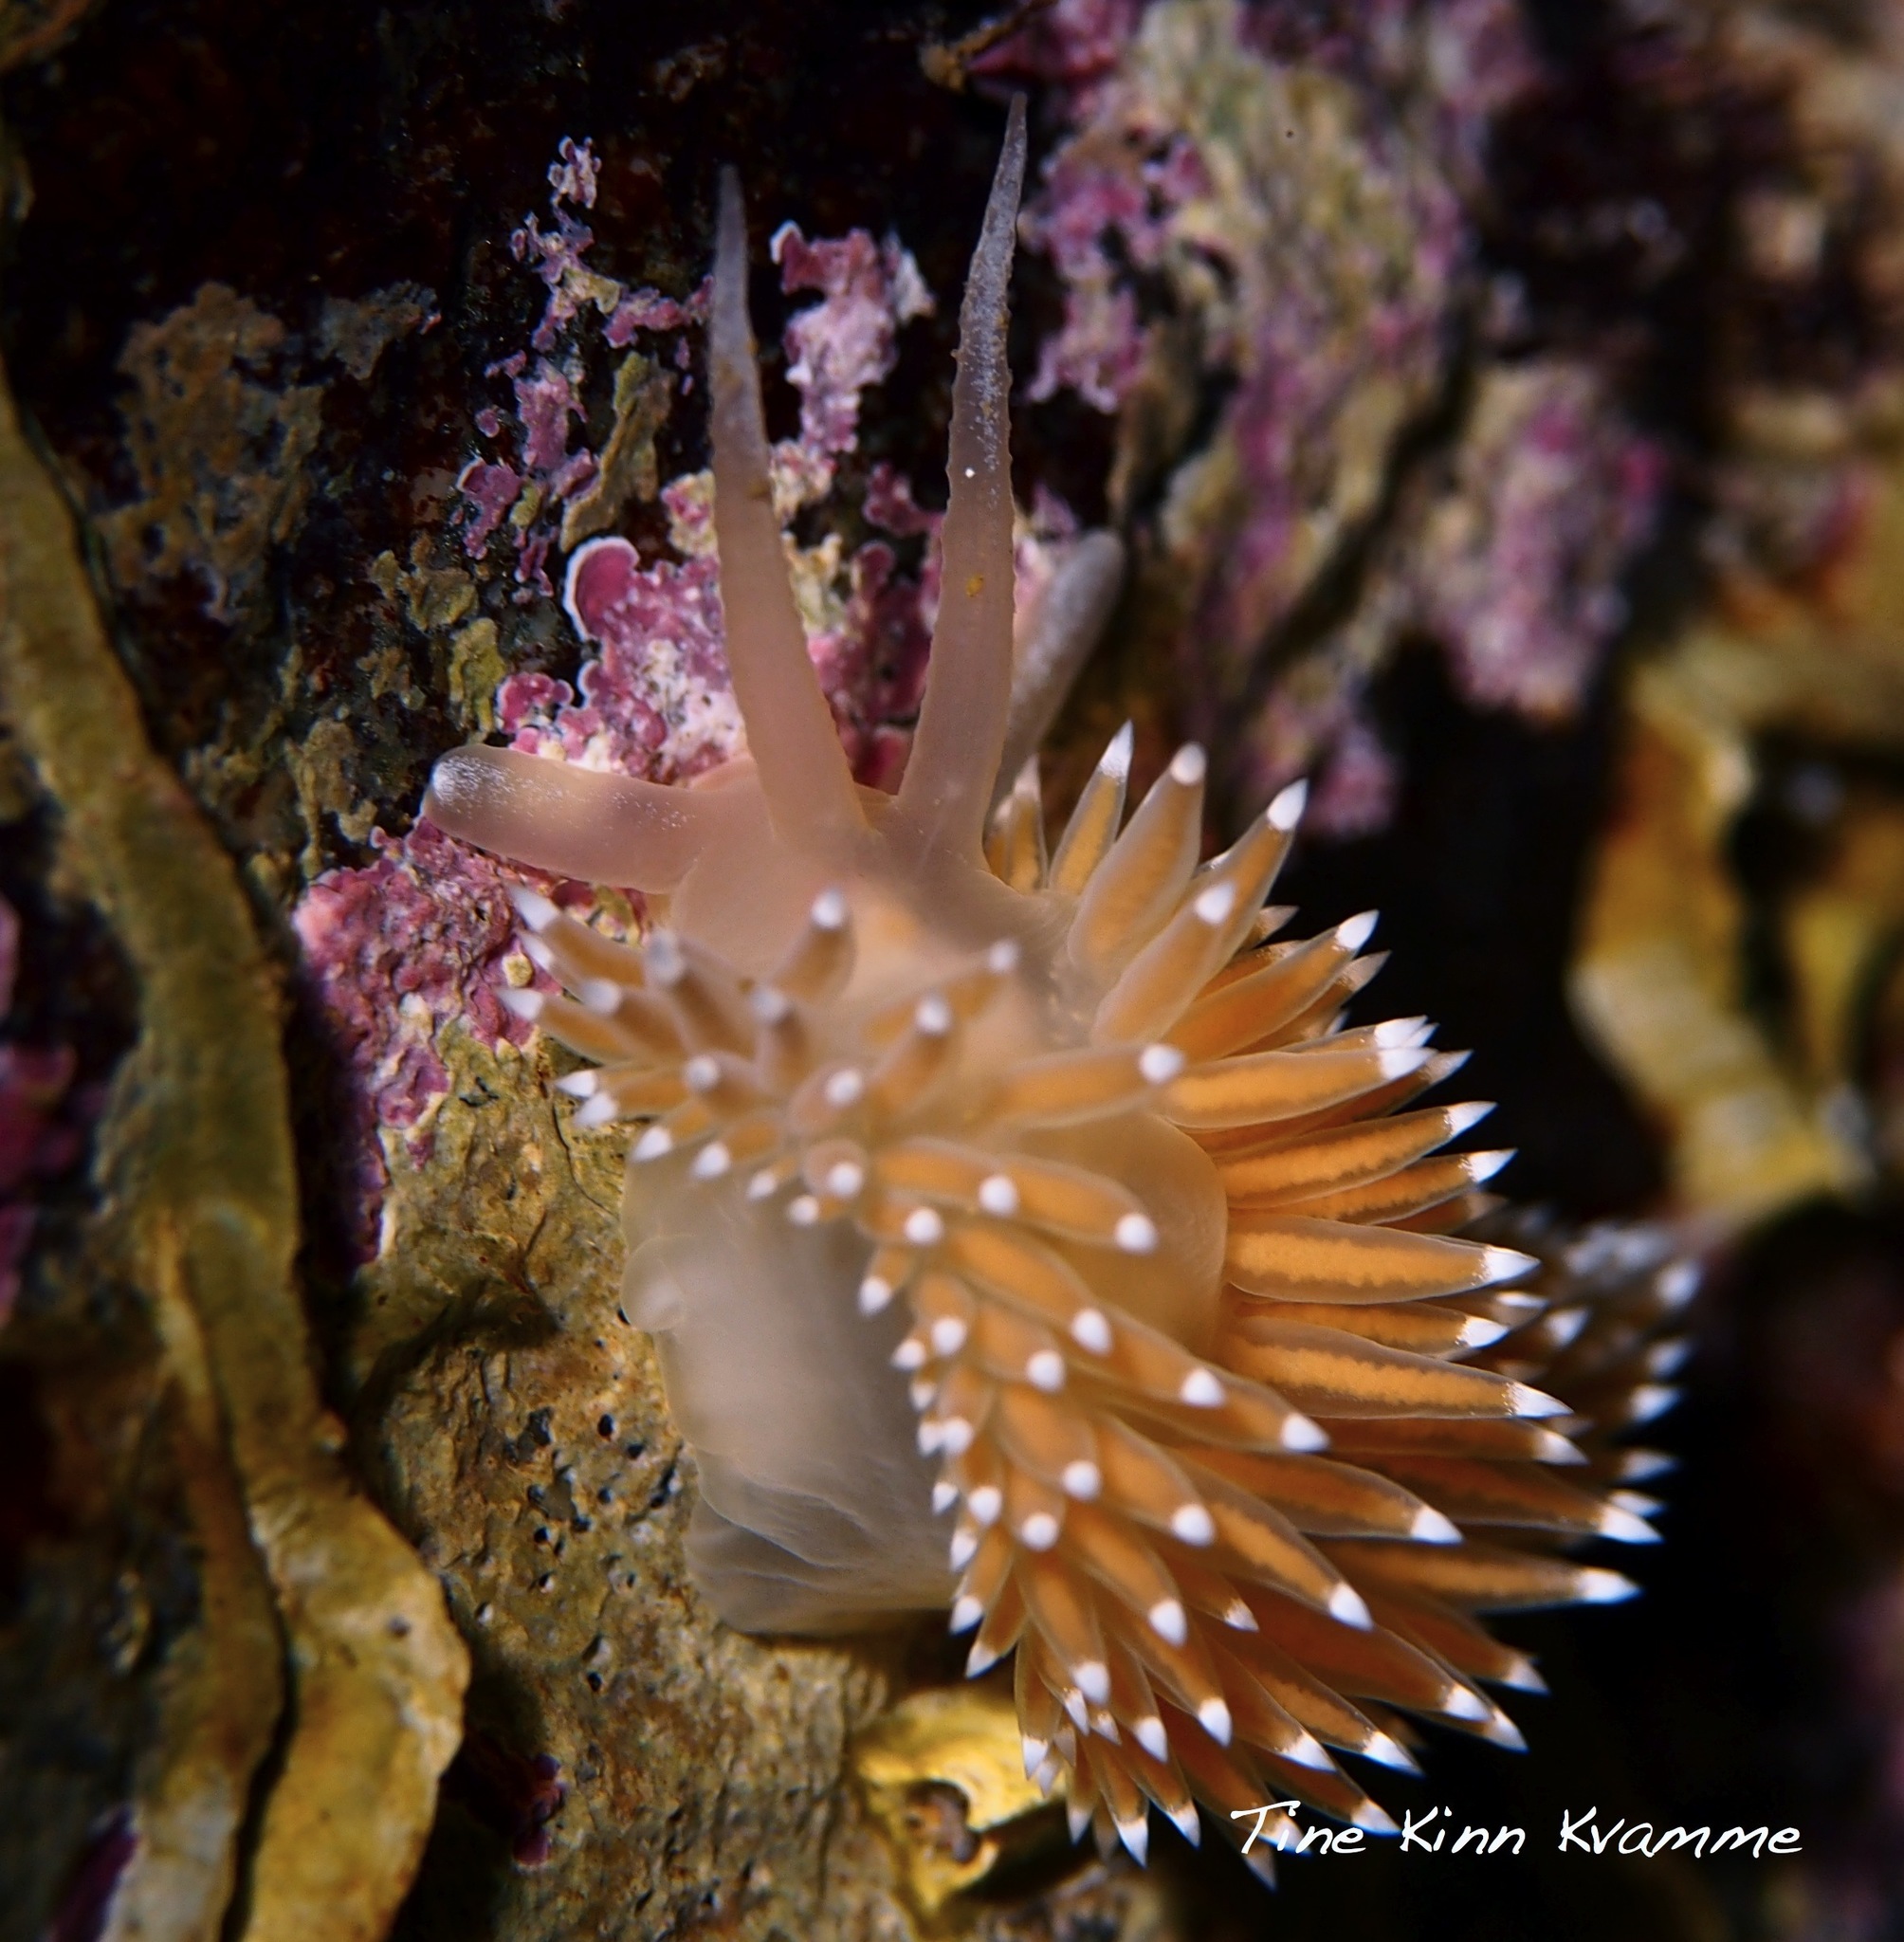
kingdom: Animalia
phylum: Mollusca
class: Gastropoda
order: Nudibranchia
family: Coryphellidae
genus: Coryphella
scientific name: Coryphella nobilis
